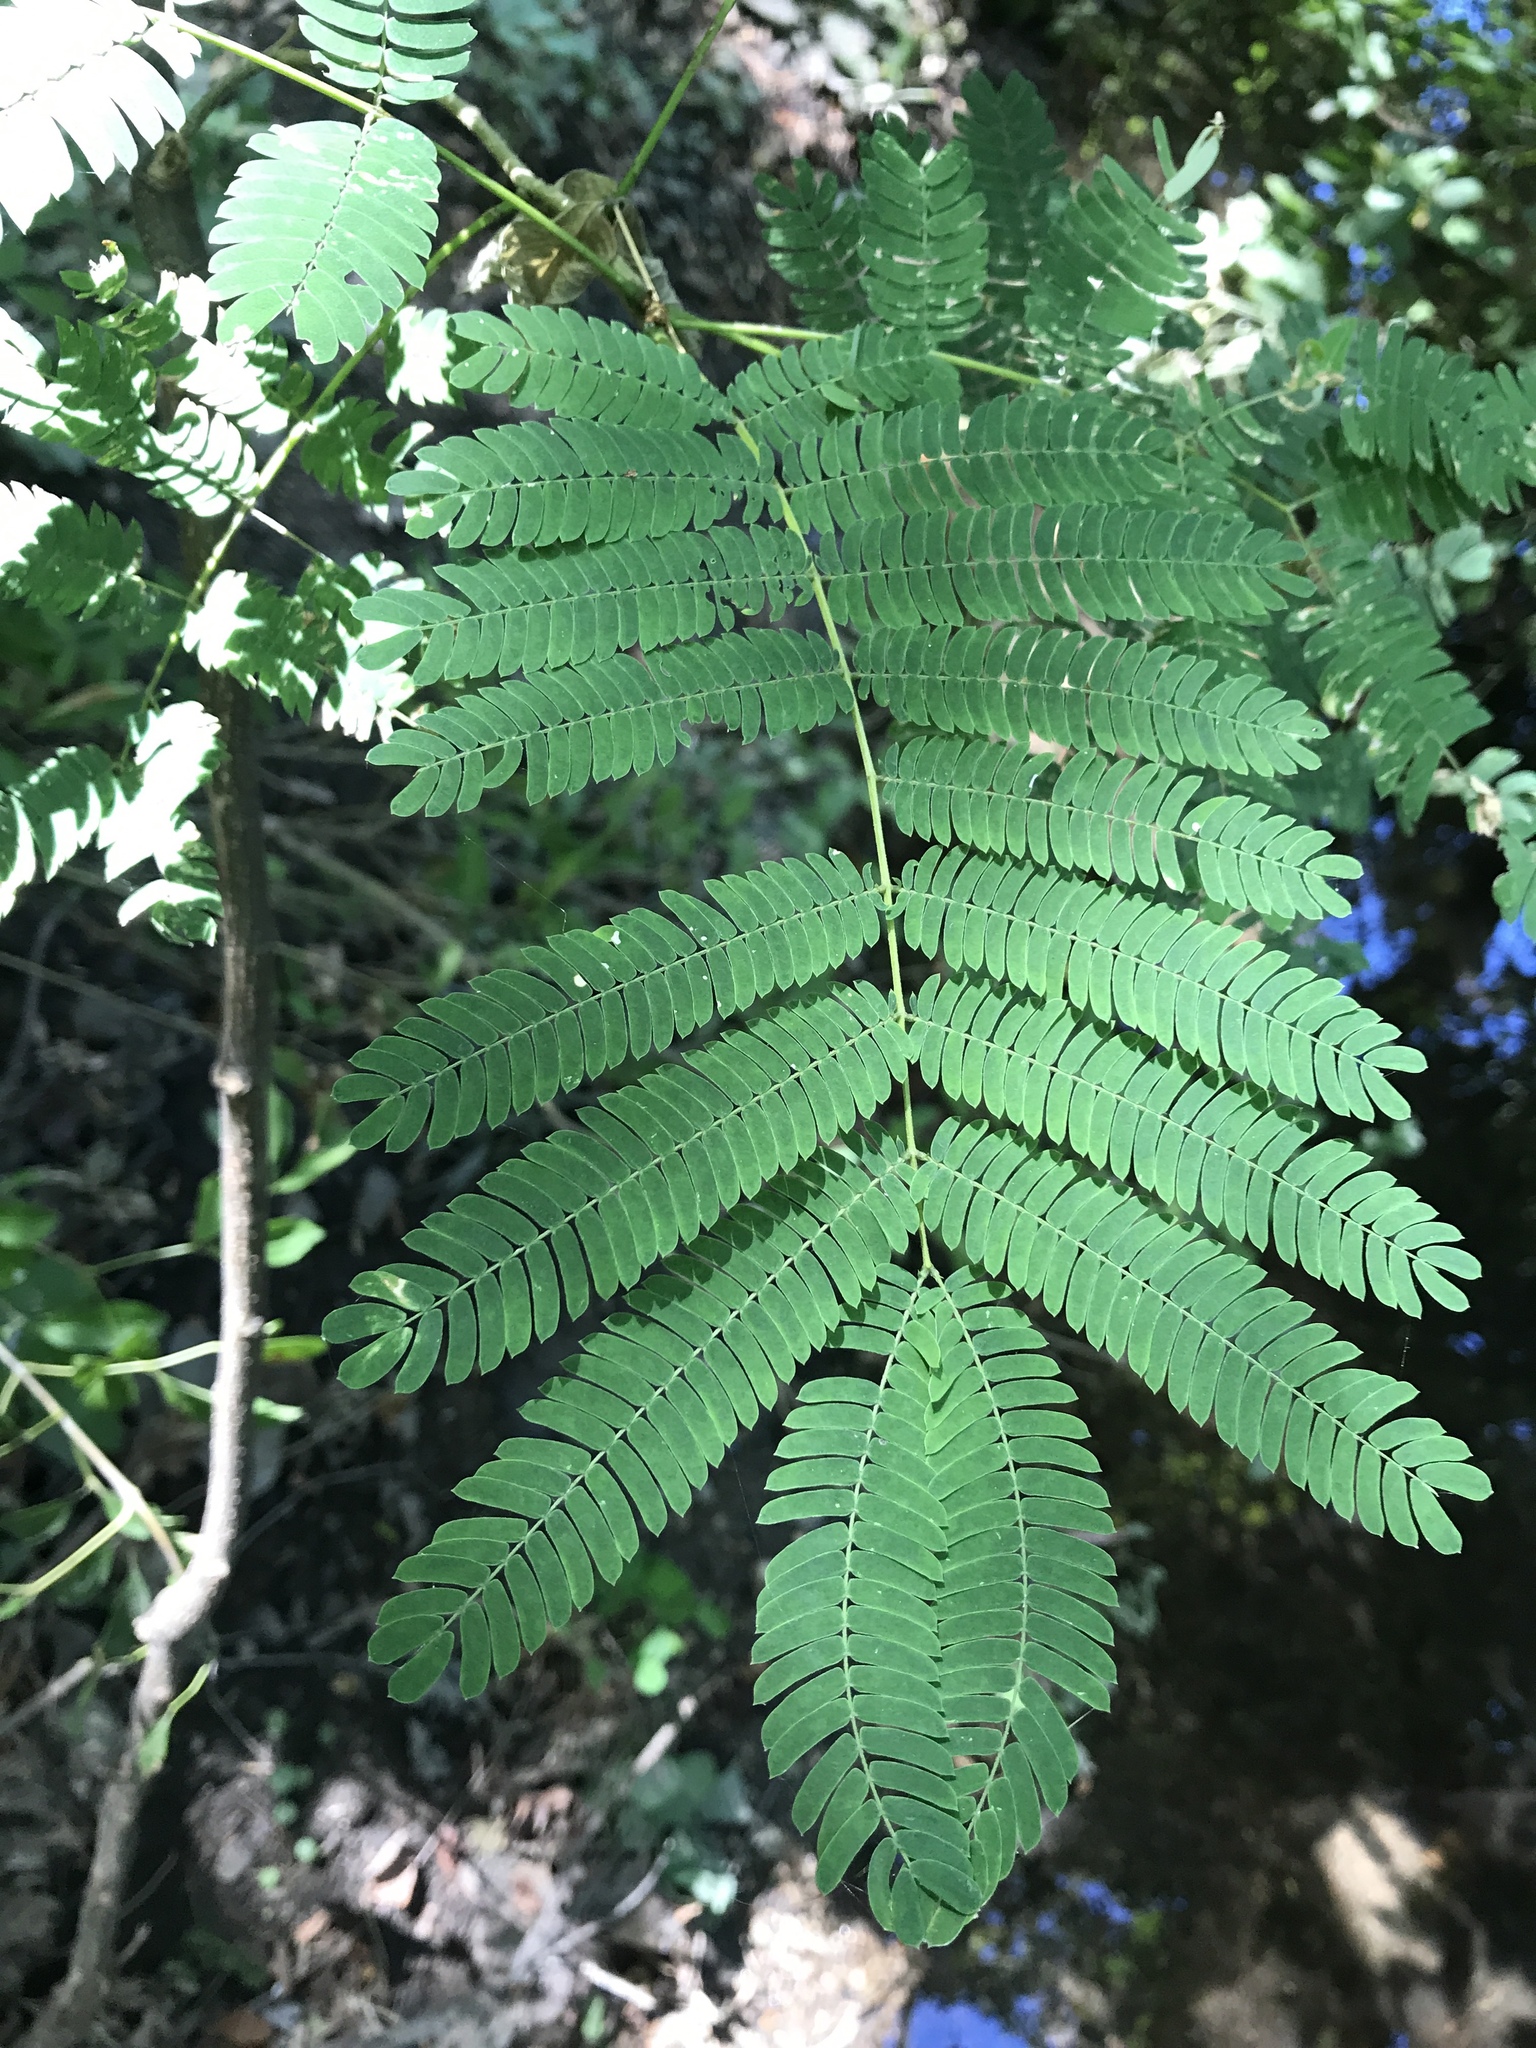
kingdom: Plantae
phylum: Tracheophyta
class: Magnoliopsida
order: Fabales
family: Fabaceae
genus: Albizia
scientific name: Albizia julibrissin
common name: Silktree
